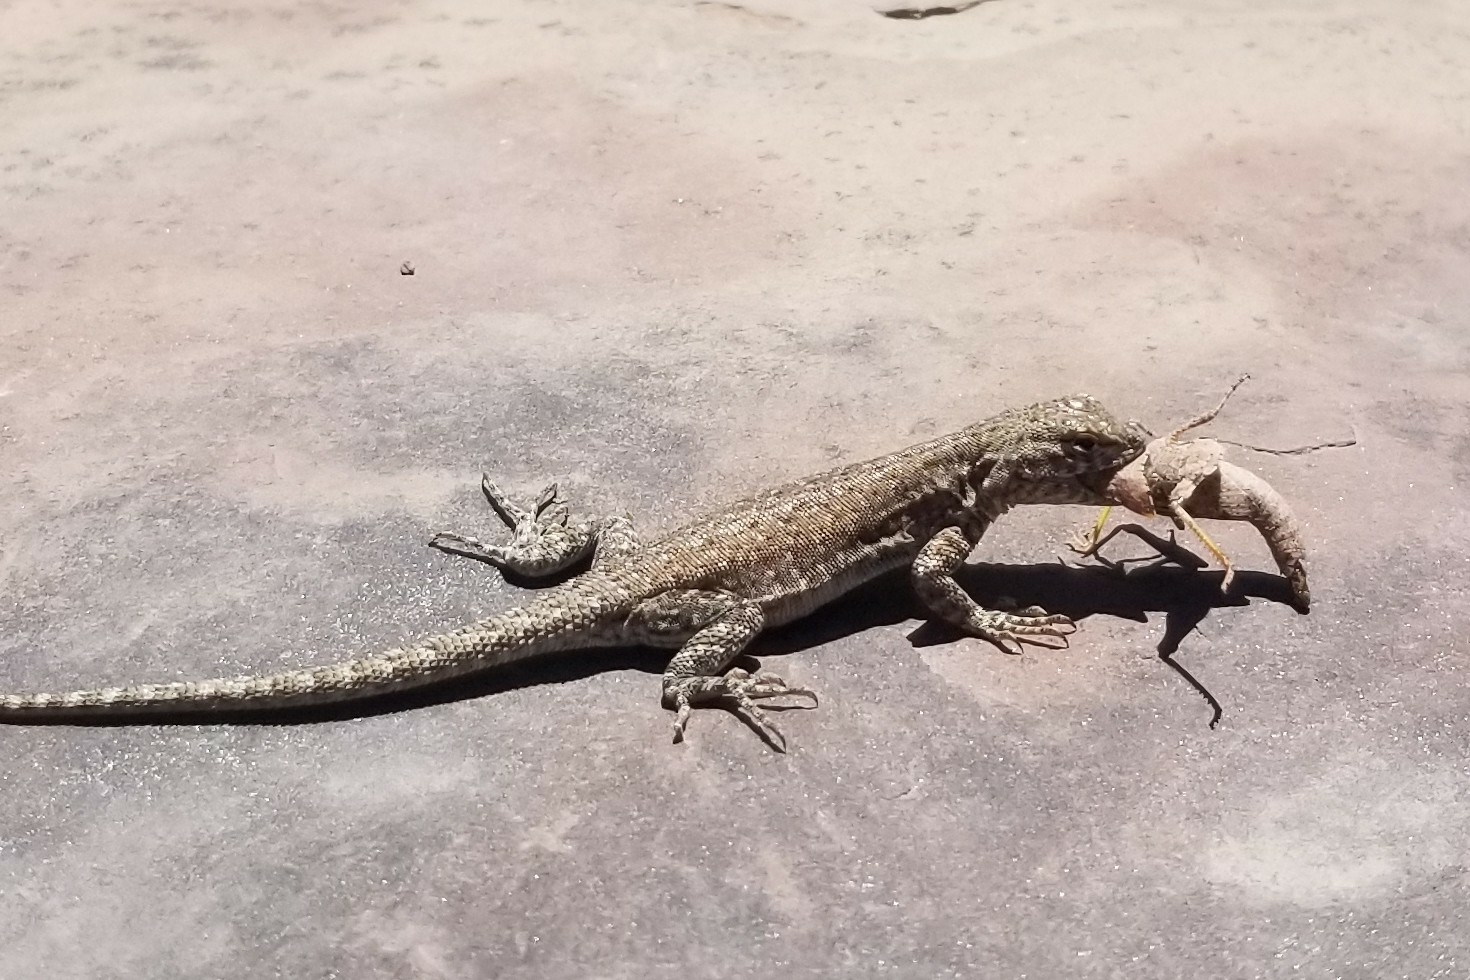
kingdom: Animalia
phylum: Chordata
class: Squamata
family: Phrynosomatidae
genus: Uta
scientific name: Uta stansburiana
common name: Side-blotched lizard
